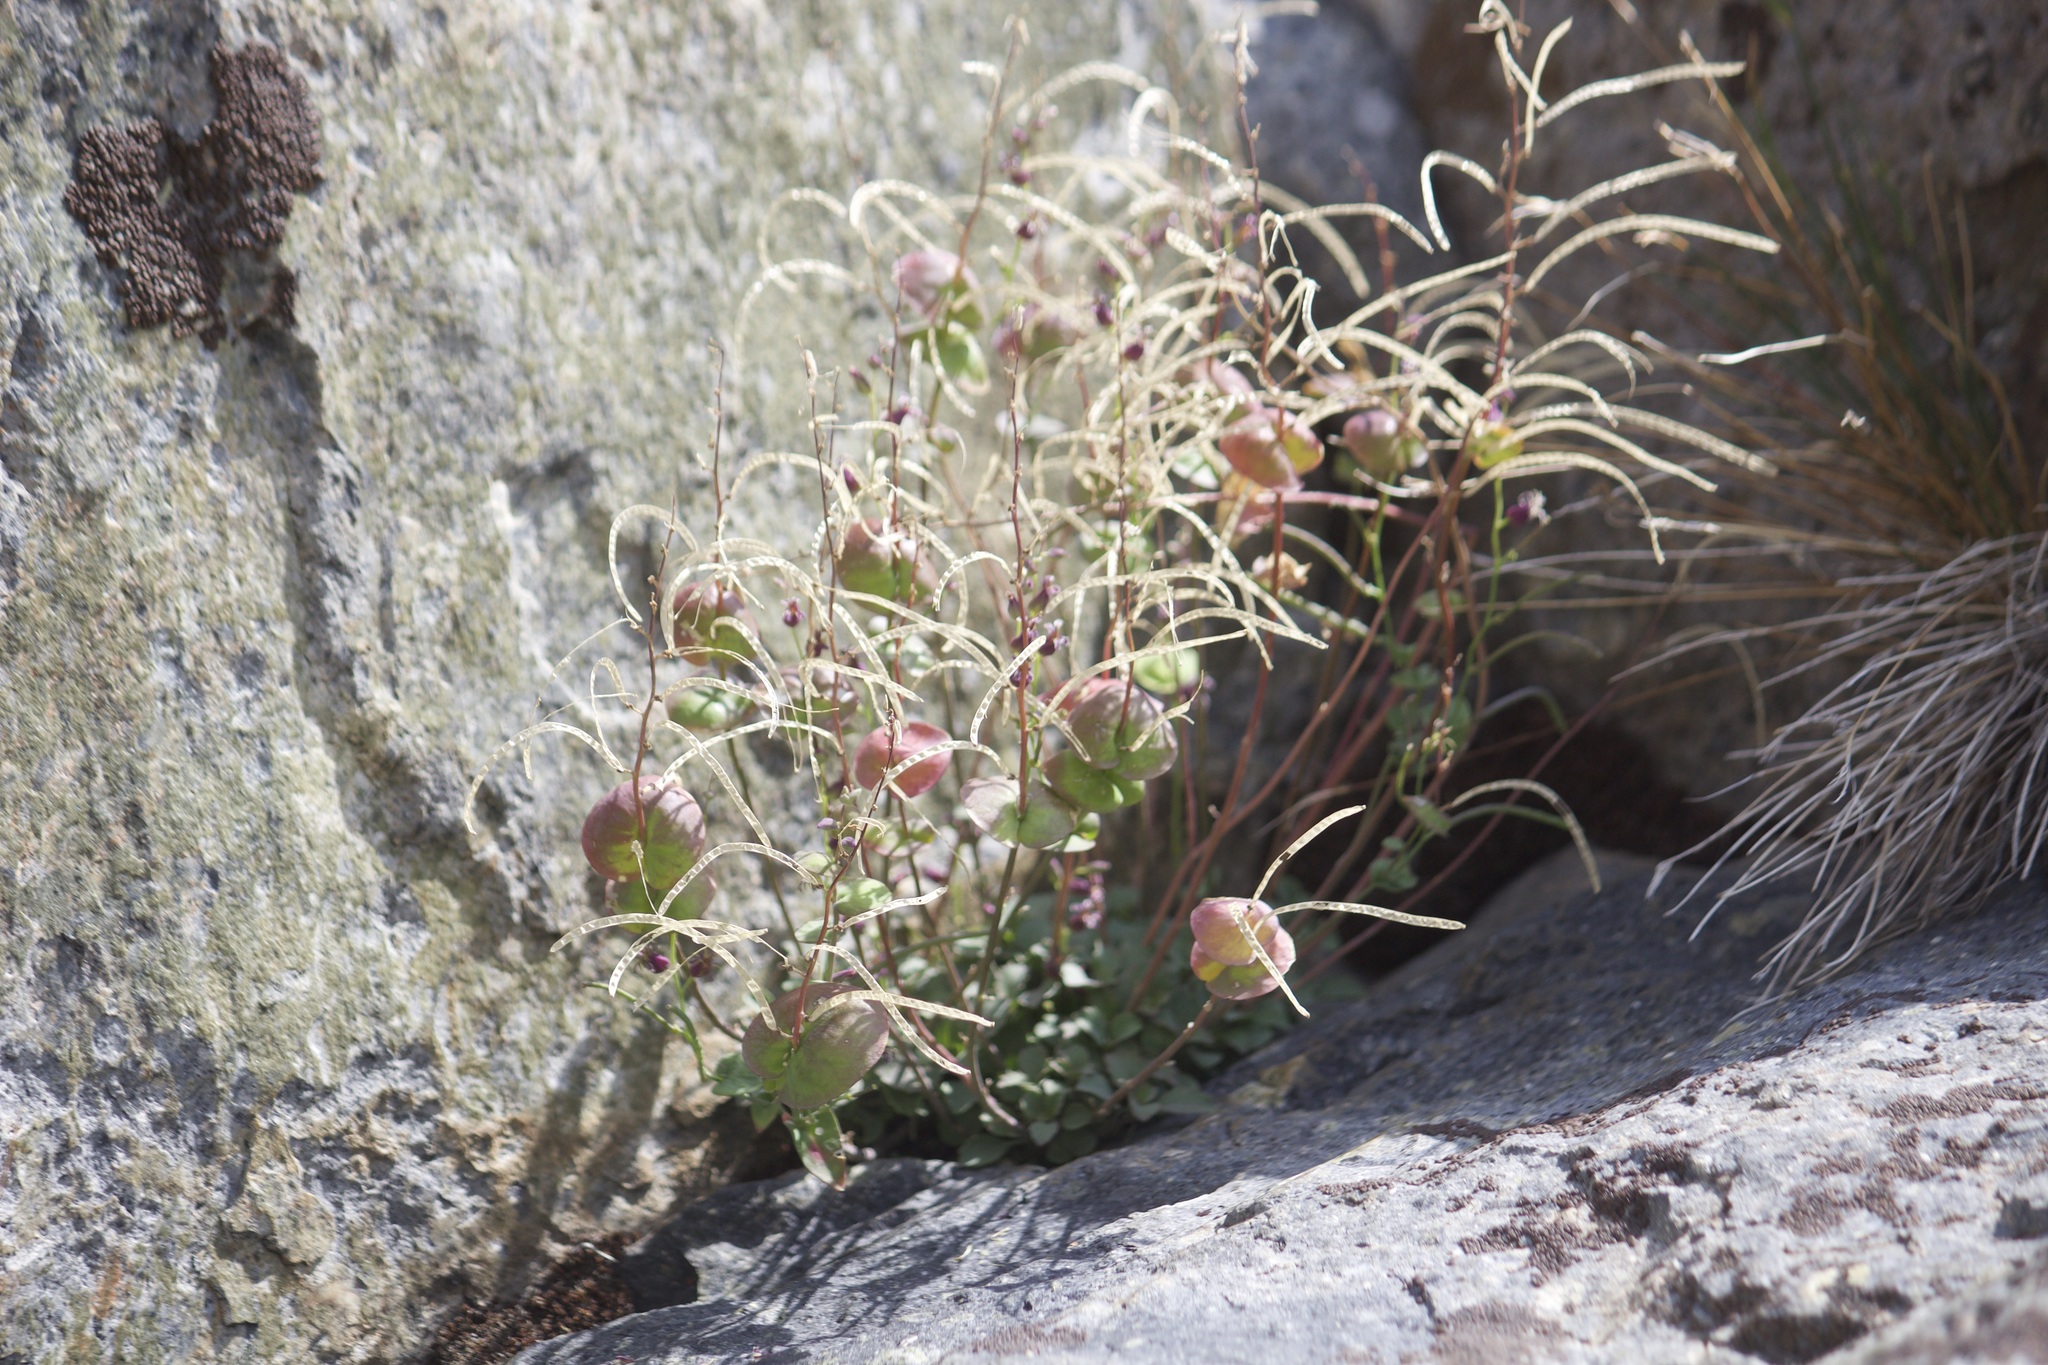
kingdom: Plantae
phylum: Tracheophyta
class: Magnoliopsida
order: Brassicales
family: Brassicaceae
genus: Streptanthus
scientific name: Streptanthus tortuosus
